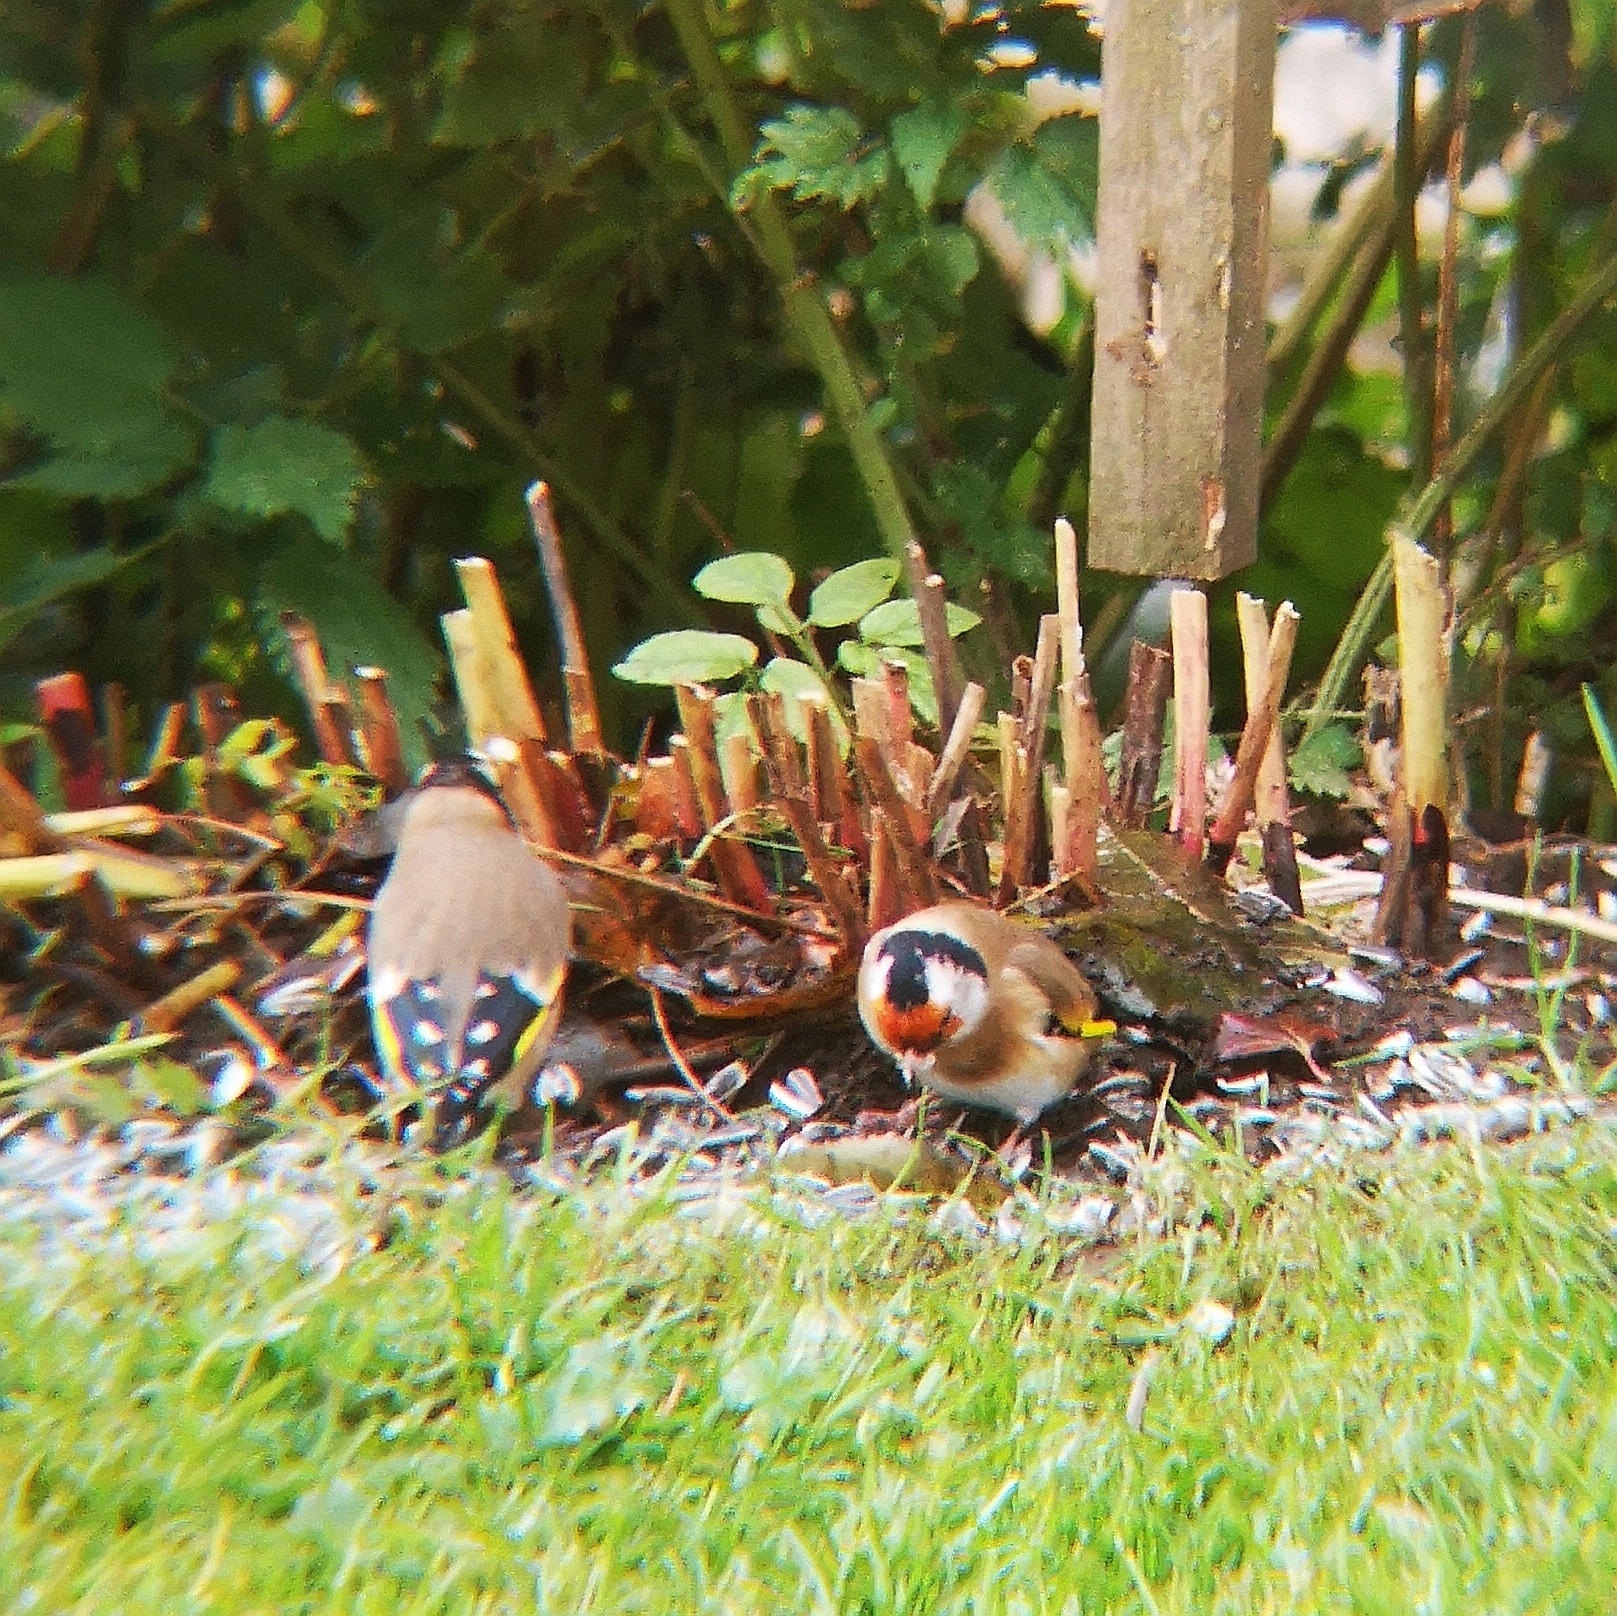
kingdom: Animalia
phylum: Chordata
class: Aves
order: Passeriformes
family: Fringillidae
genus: Carduelis
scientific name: Carduelis carduelis
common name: European goldfinch
